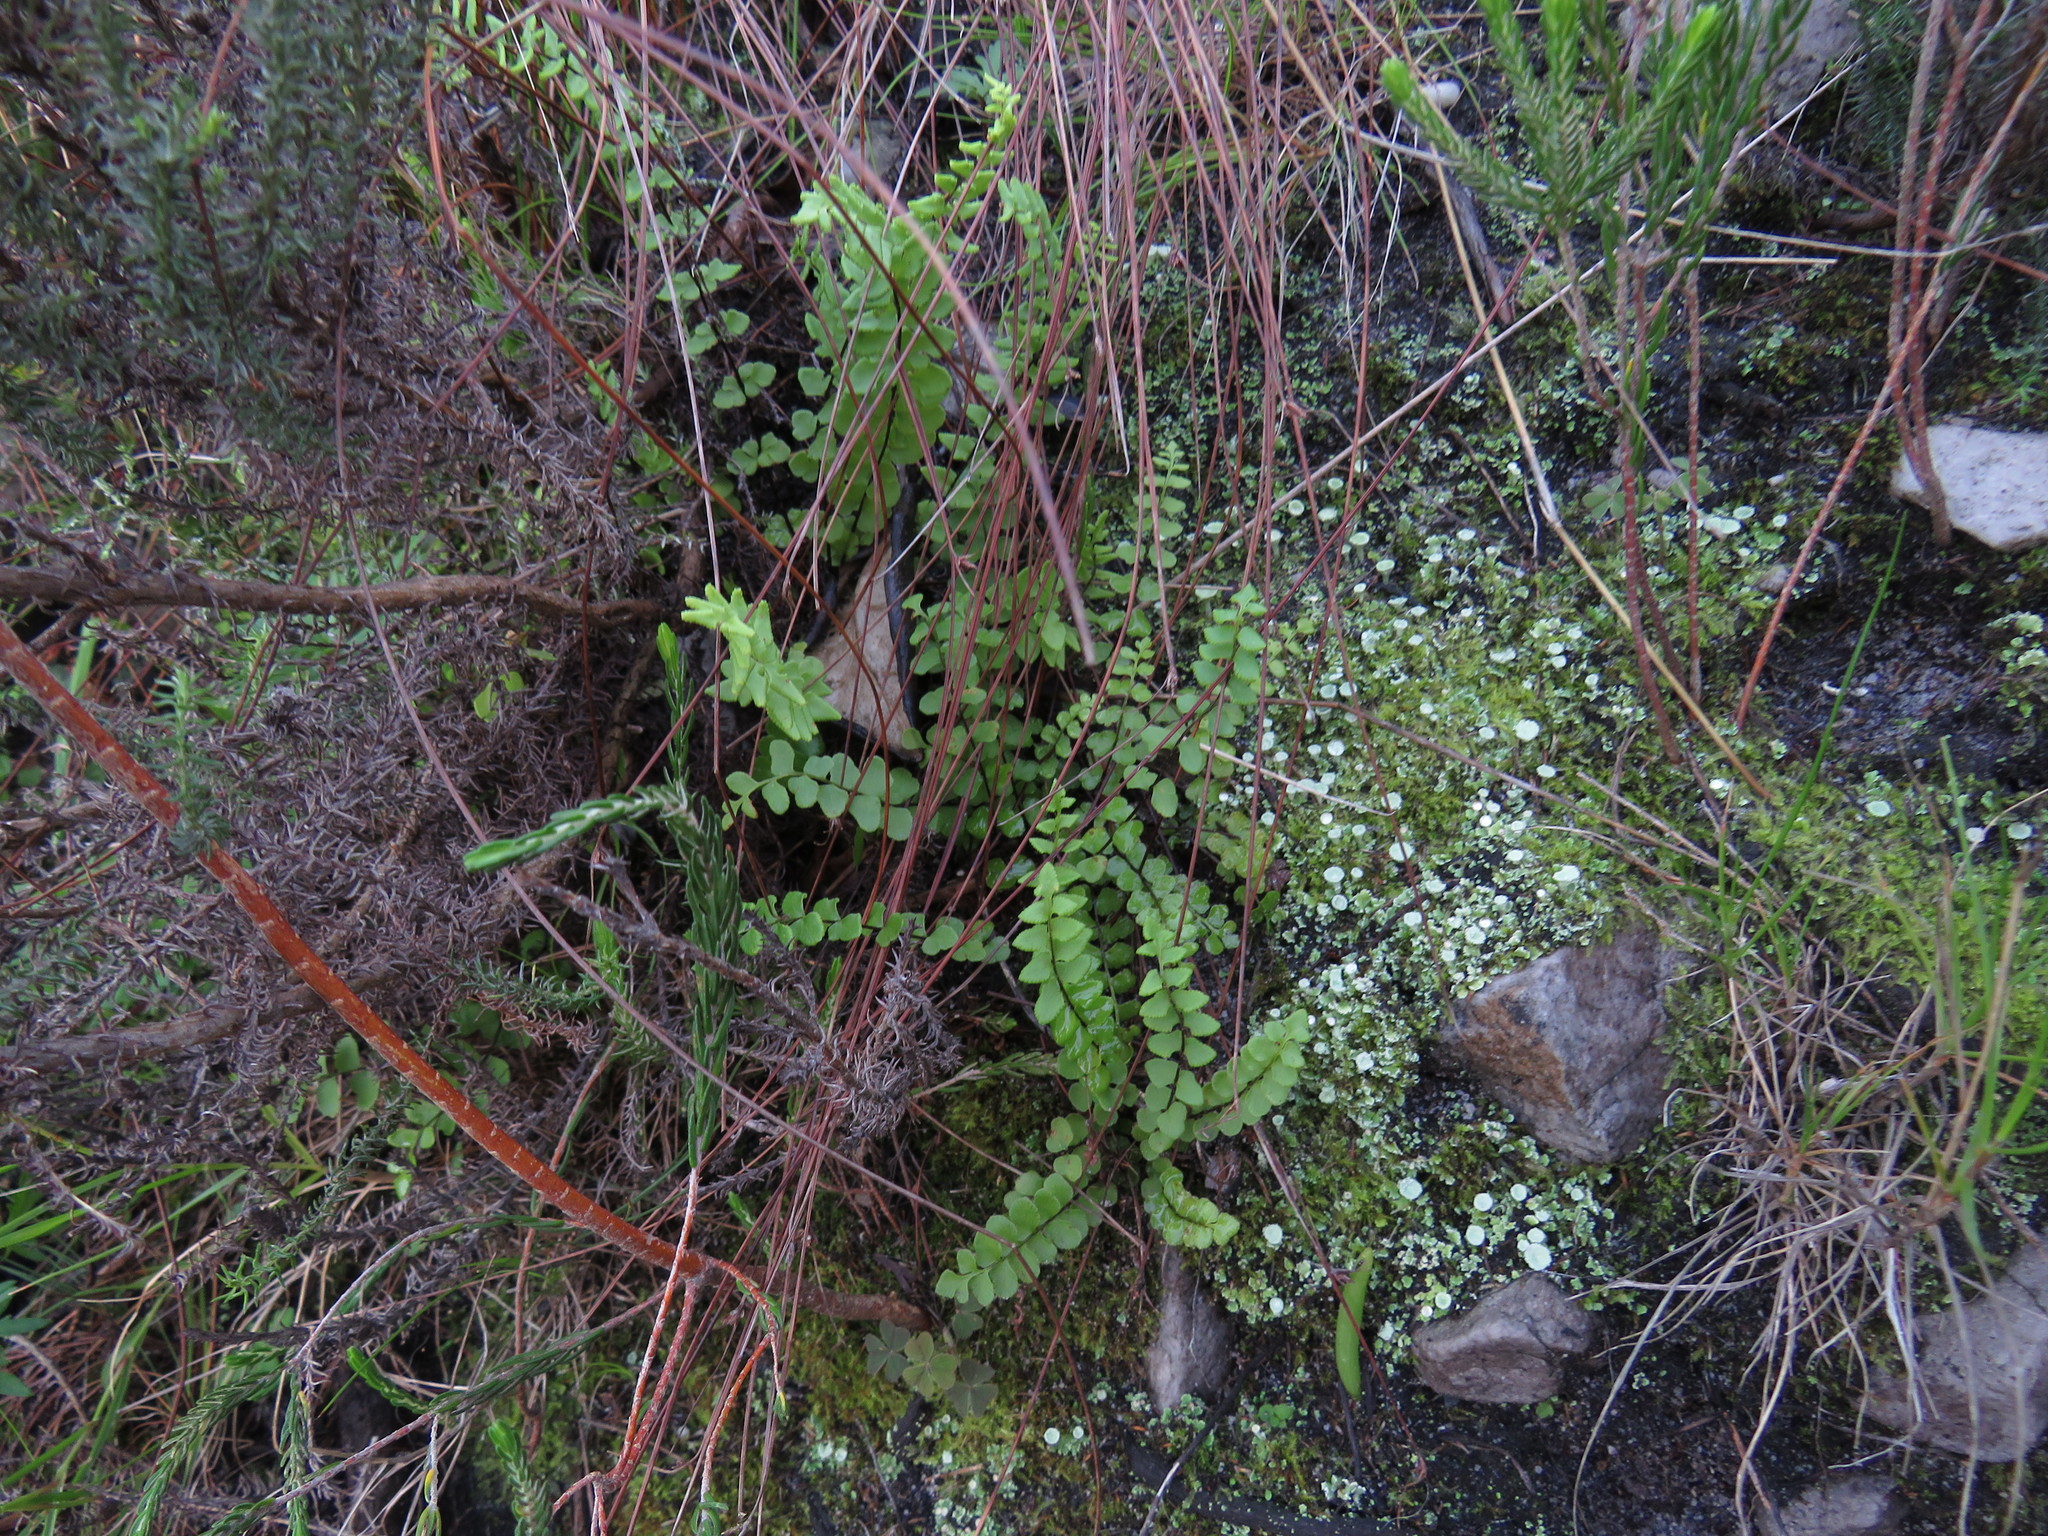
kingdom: Plantae
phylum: Tracheophyta
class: Polypodiopsida
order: Polypodiales
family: Pteridaceae
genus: Cheilanthes
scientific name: Cheilanthes hastata
